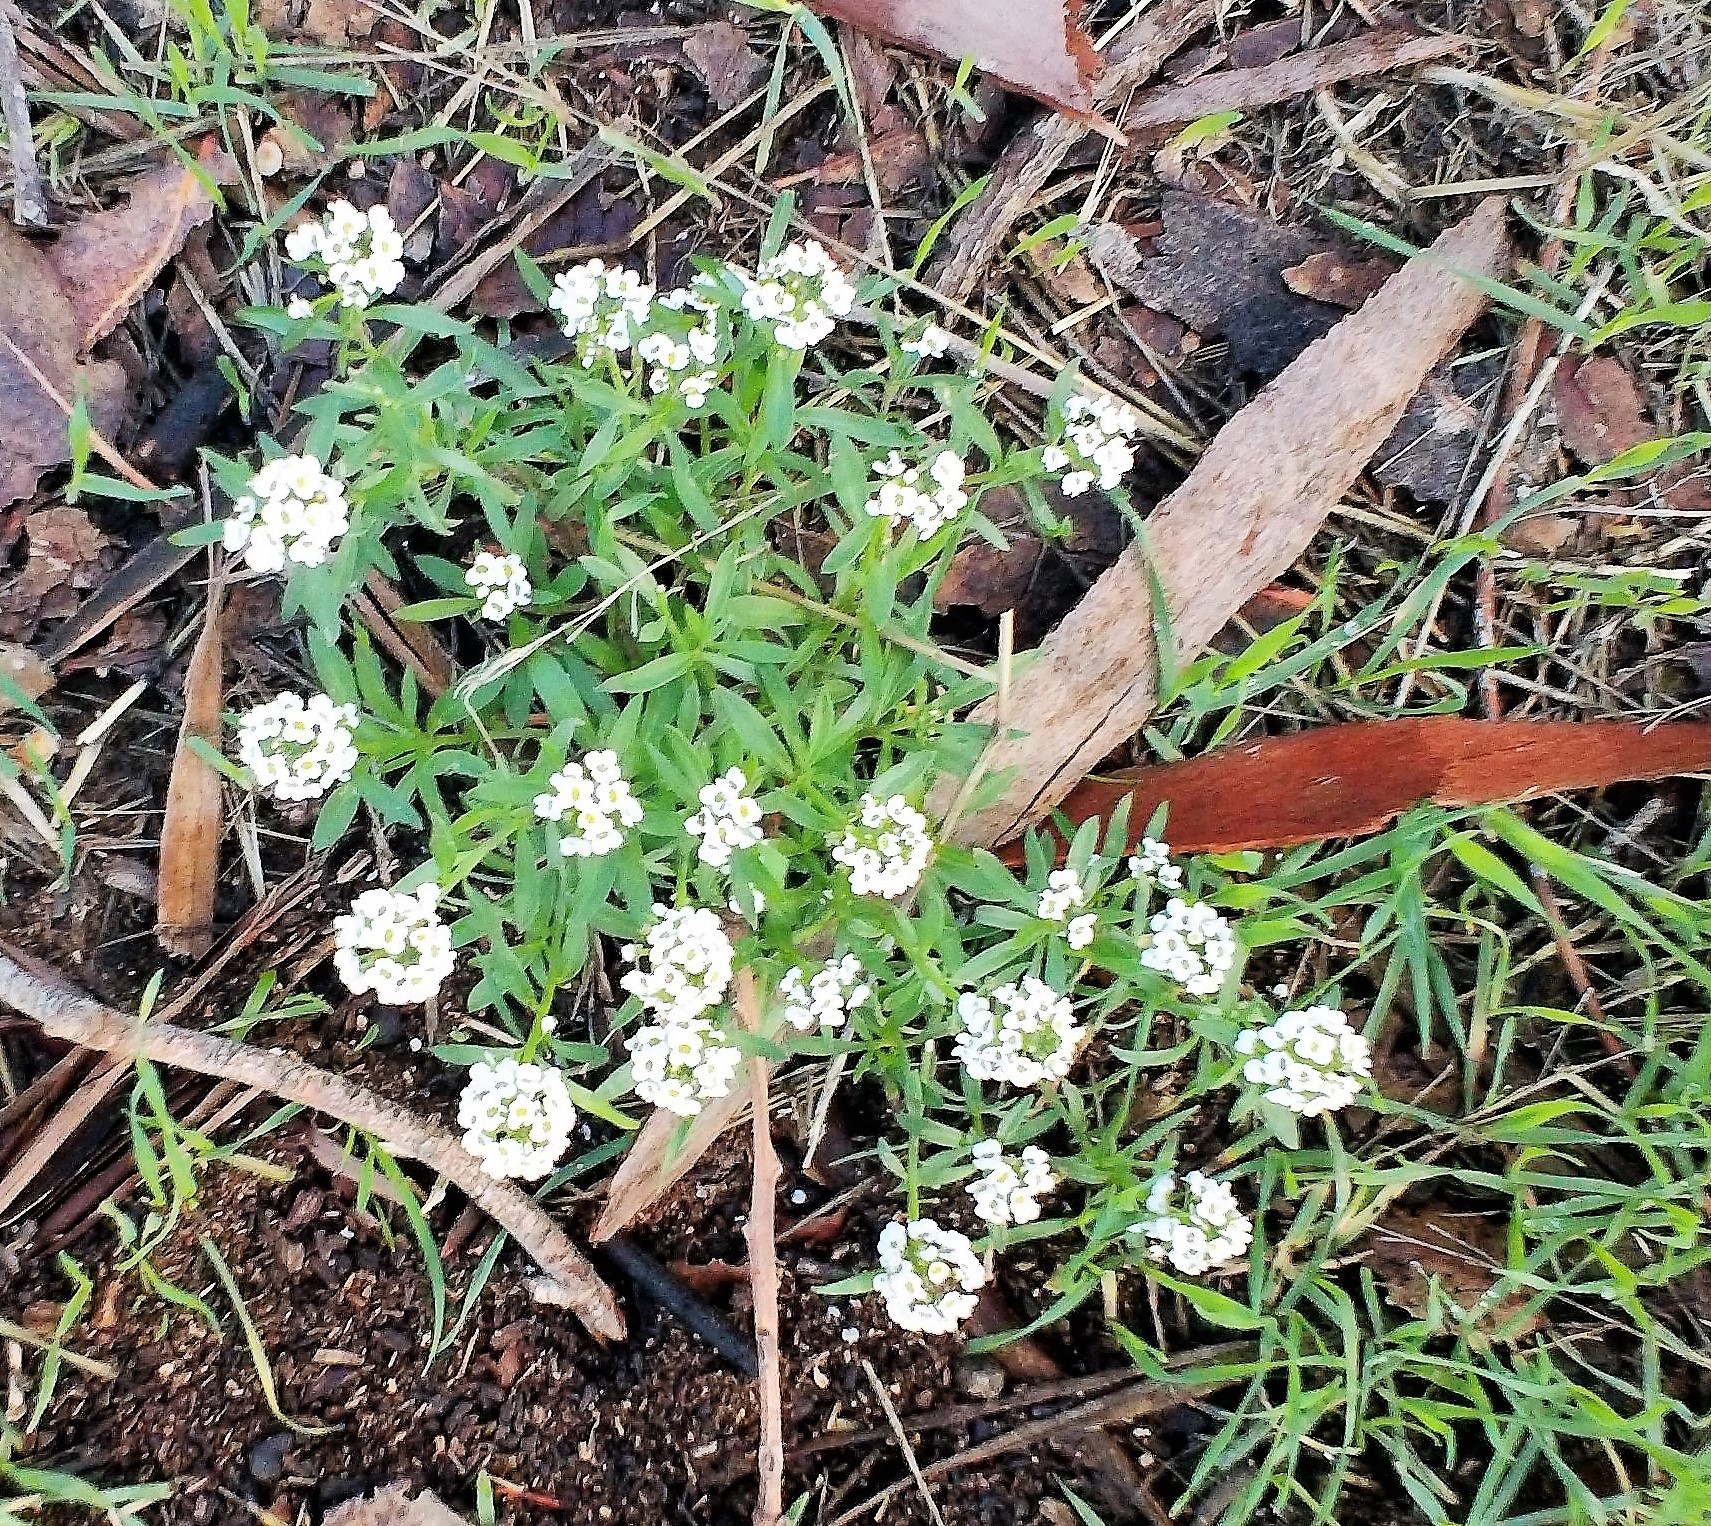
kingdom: Plantae
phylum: Tracheophyta
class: Magnoliopsida
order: Brassicales
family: Brassicaceae
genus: Lobularia
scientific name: Lobularia maritima
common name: Sweet alison
